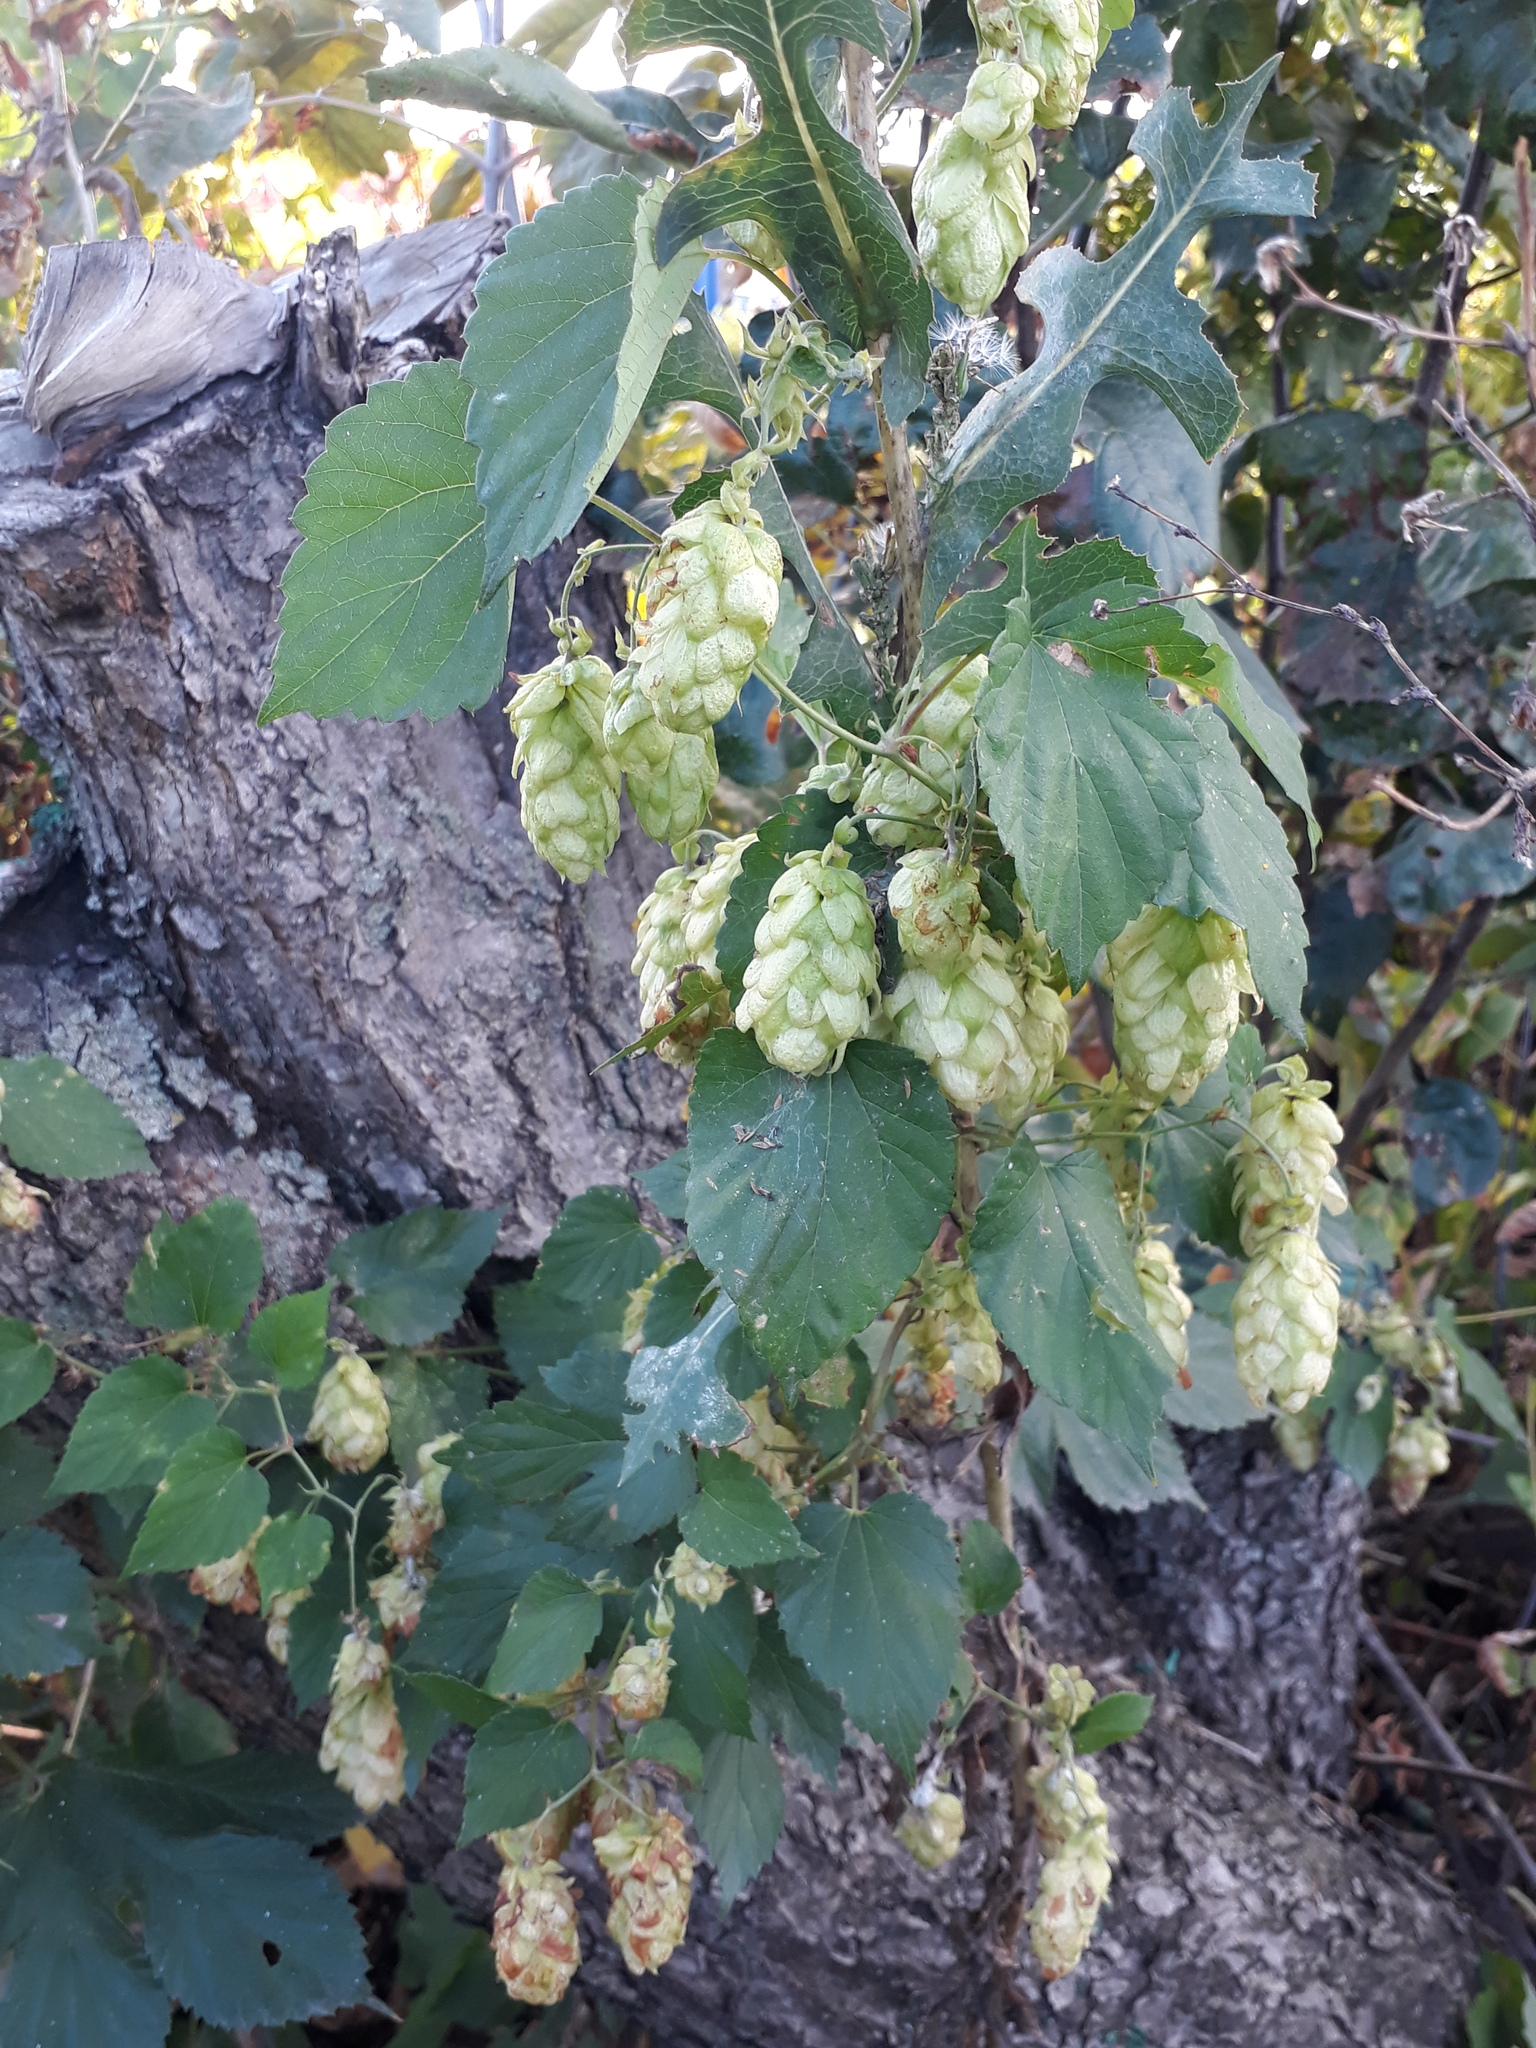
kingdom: Plantae
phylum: Tracheophyta
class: Magnoliopsida
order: Rosales
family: Cannabaceae
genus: Humulus
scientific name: Humulus lupulus
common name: Hop
